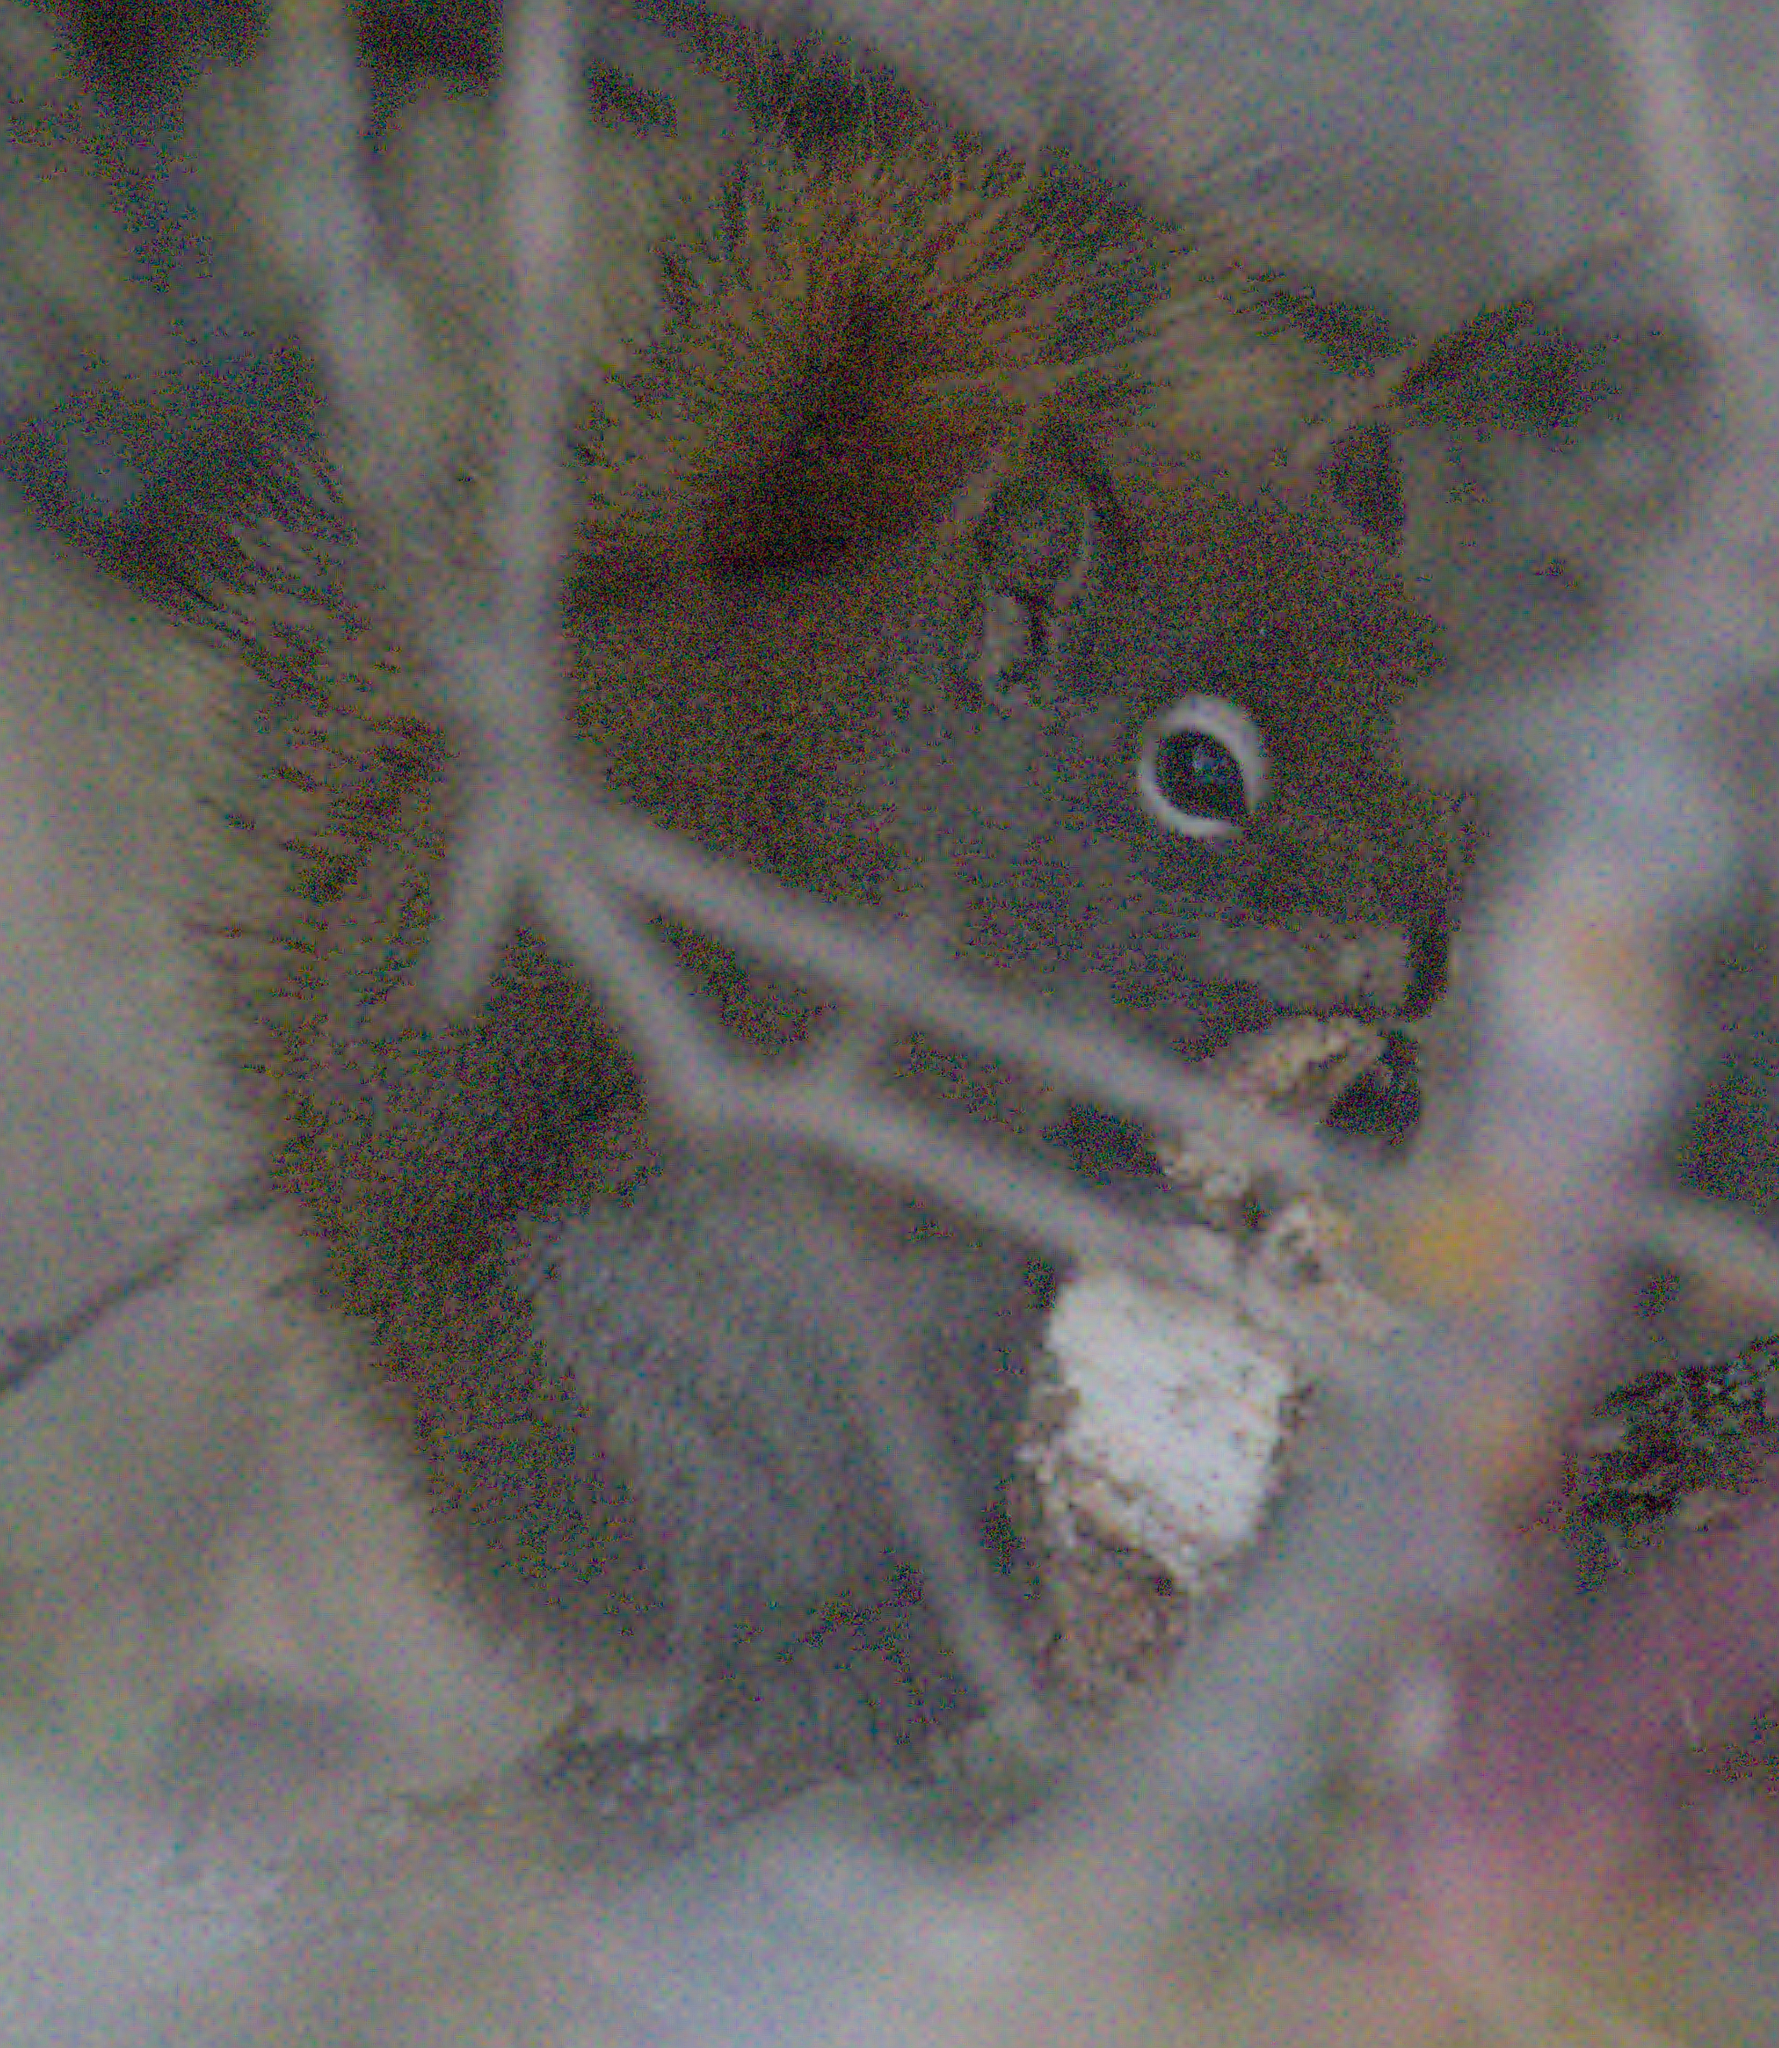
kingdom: Animalia
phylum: Chordata
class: Mammalia
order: Rodentia
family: Sciuridae
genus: Tamiasciurus
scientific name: Tamiasciurus hudsonicus
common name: Red squirrel
